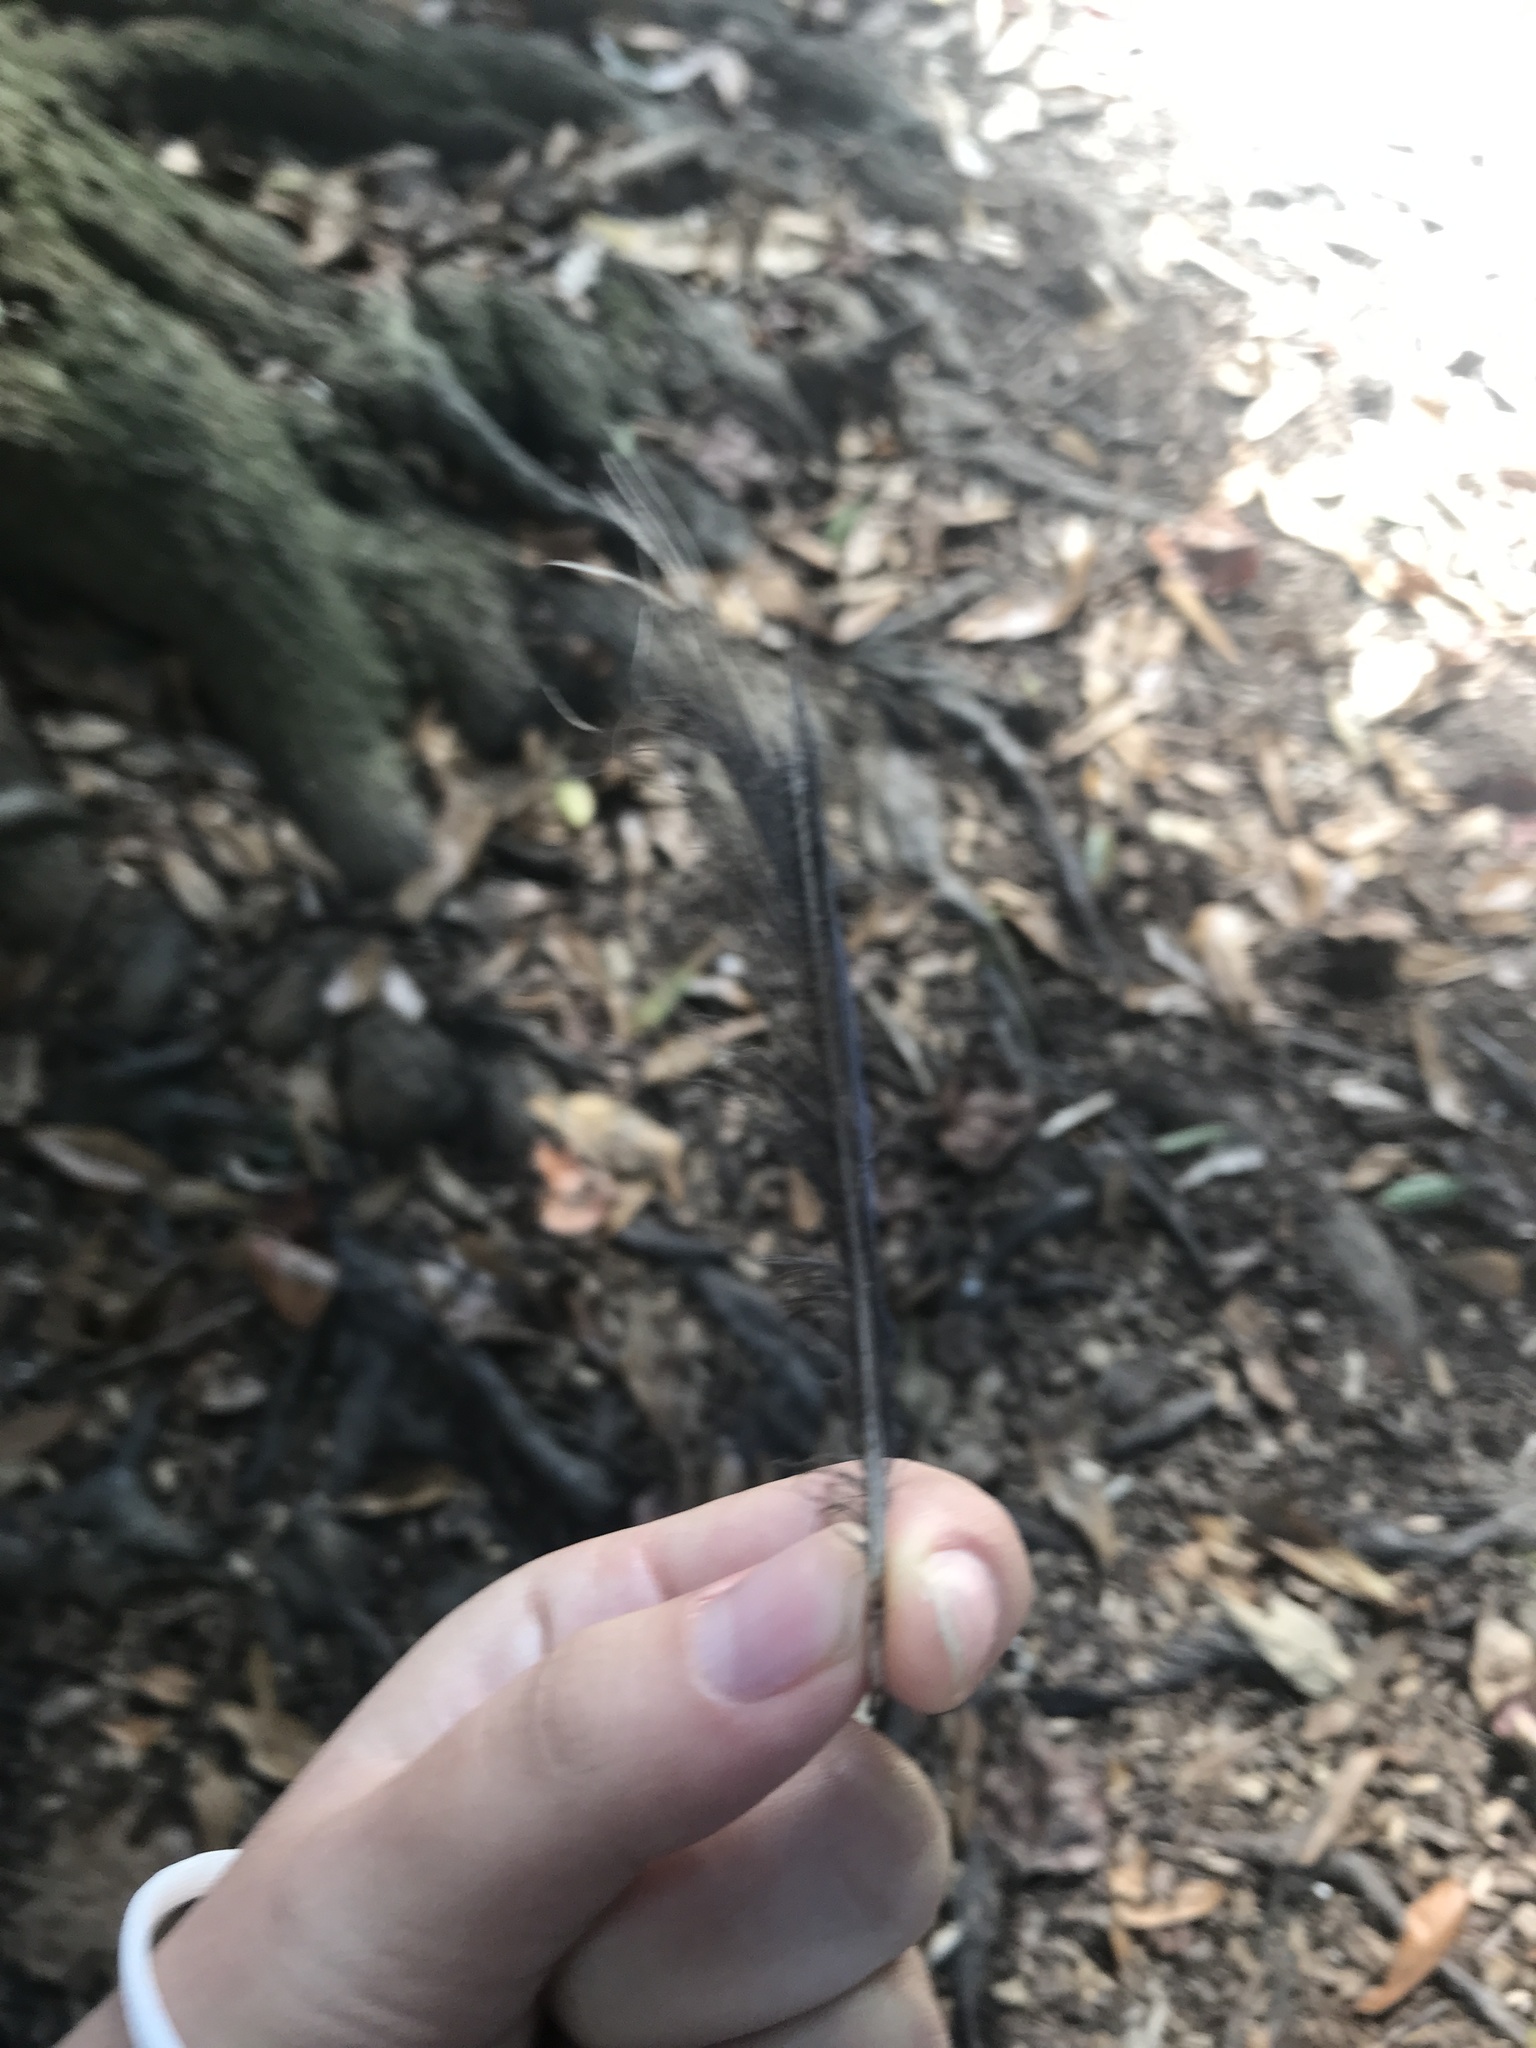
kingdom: Animalia
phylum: Chordata
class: Aves
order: Passeriformes
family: Corvidae
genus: Cyanocitta
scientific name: Cyanocitta cristata
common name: Blue jay
